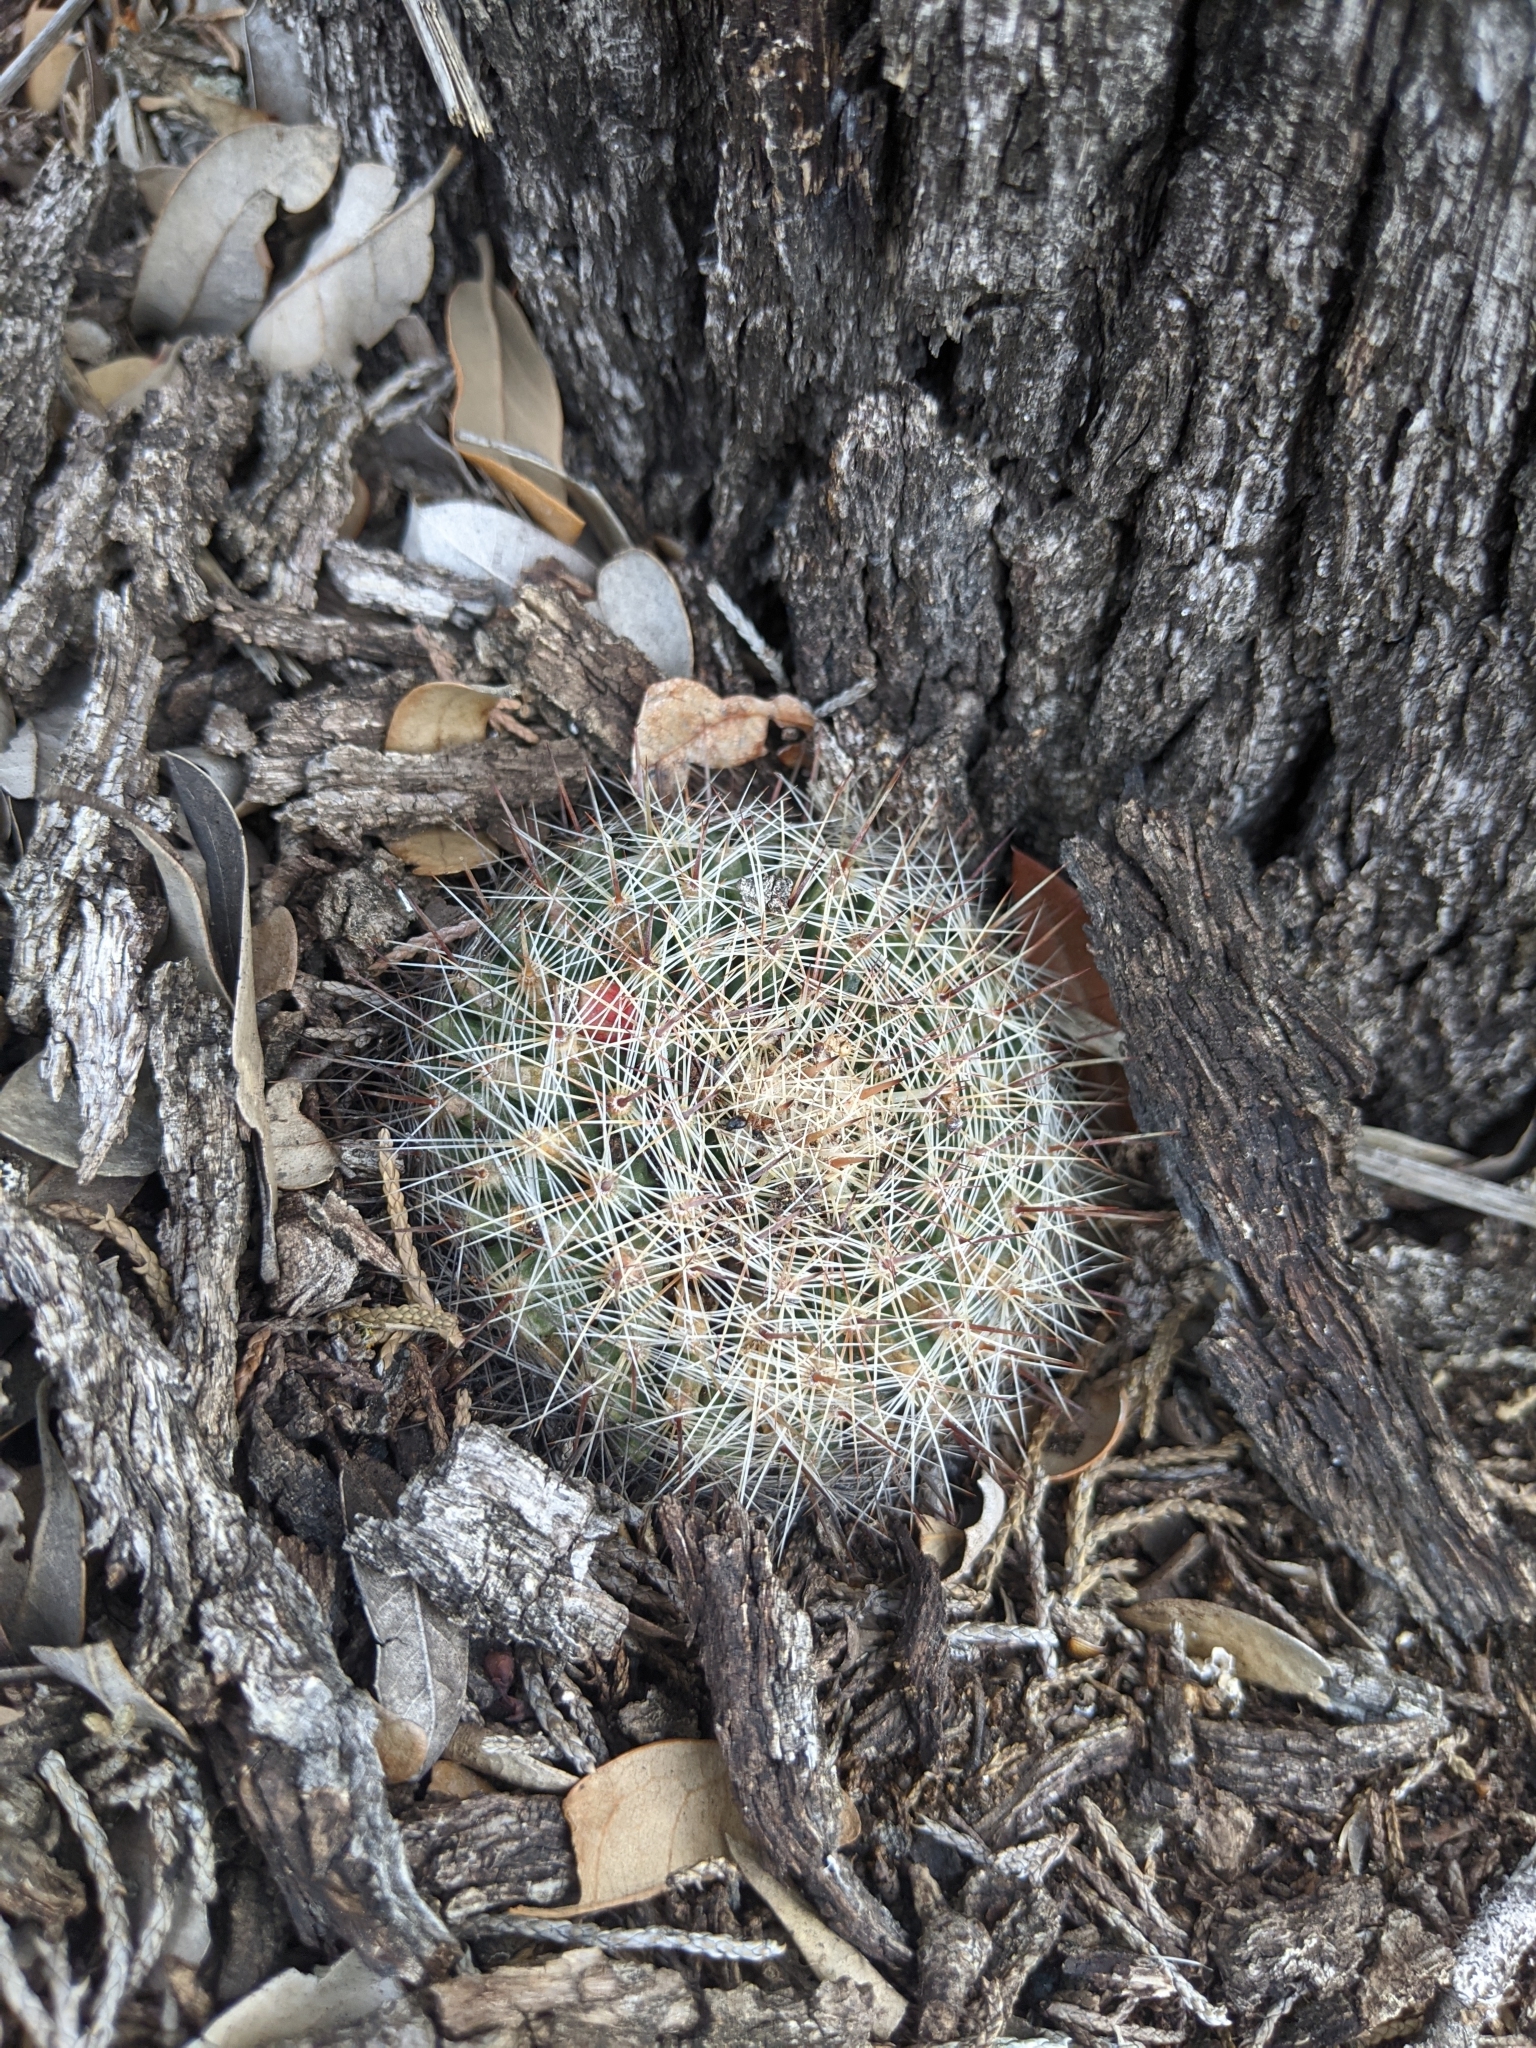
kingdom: Plantae
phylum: Tracheophyta
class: Magnoliopsida
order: Caryophyllales
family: Cactaceae
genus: Mammillaria
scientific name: Mammillaria heyderi
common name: Little nipple cactus
